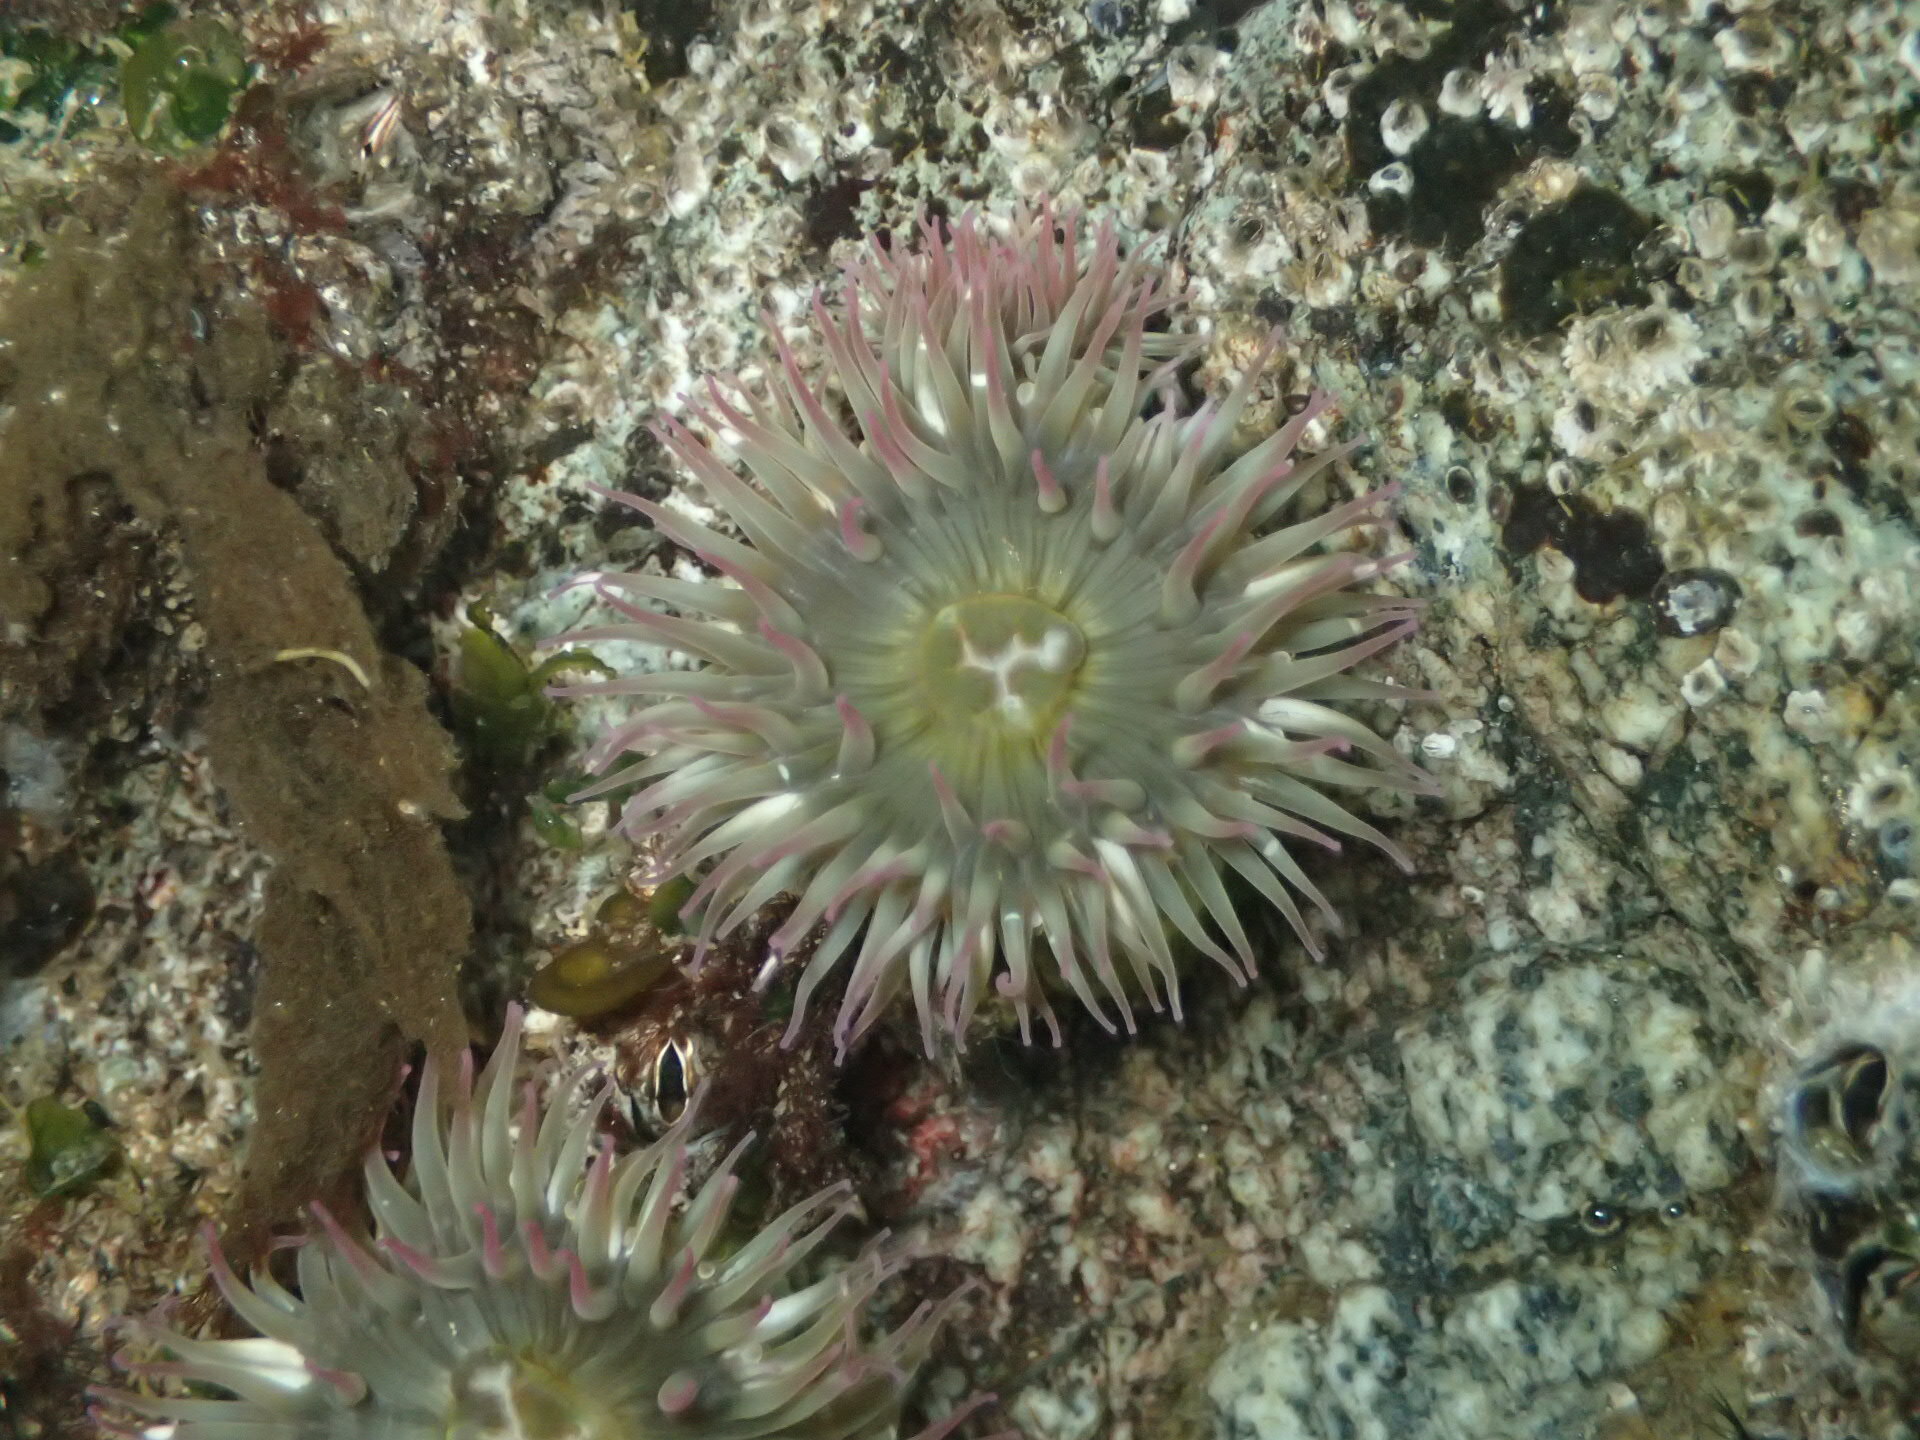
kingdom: Animalia
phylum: Cnidaria
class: Anthozoa
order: Actiniaria
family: Actiniidae
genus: Anthopleura
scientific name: Anthopleura elegantissima
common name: Clonal anemone
